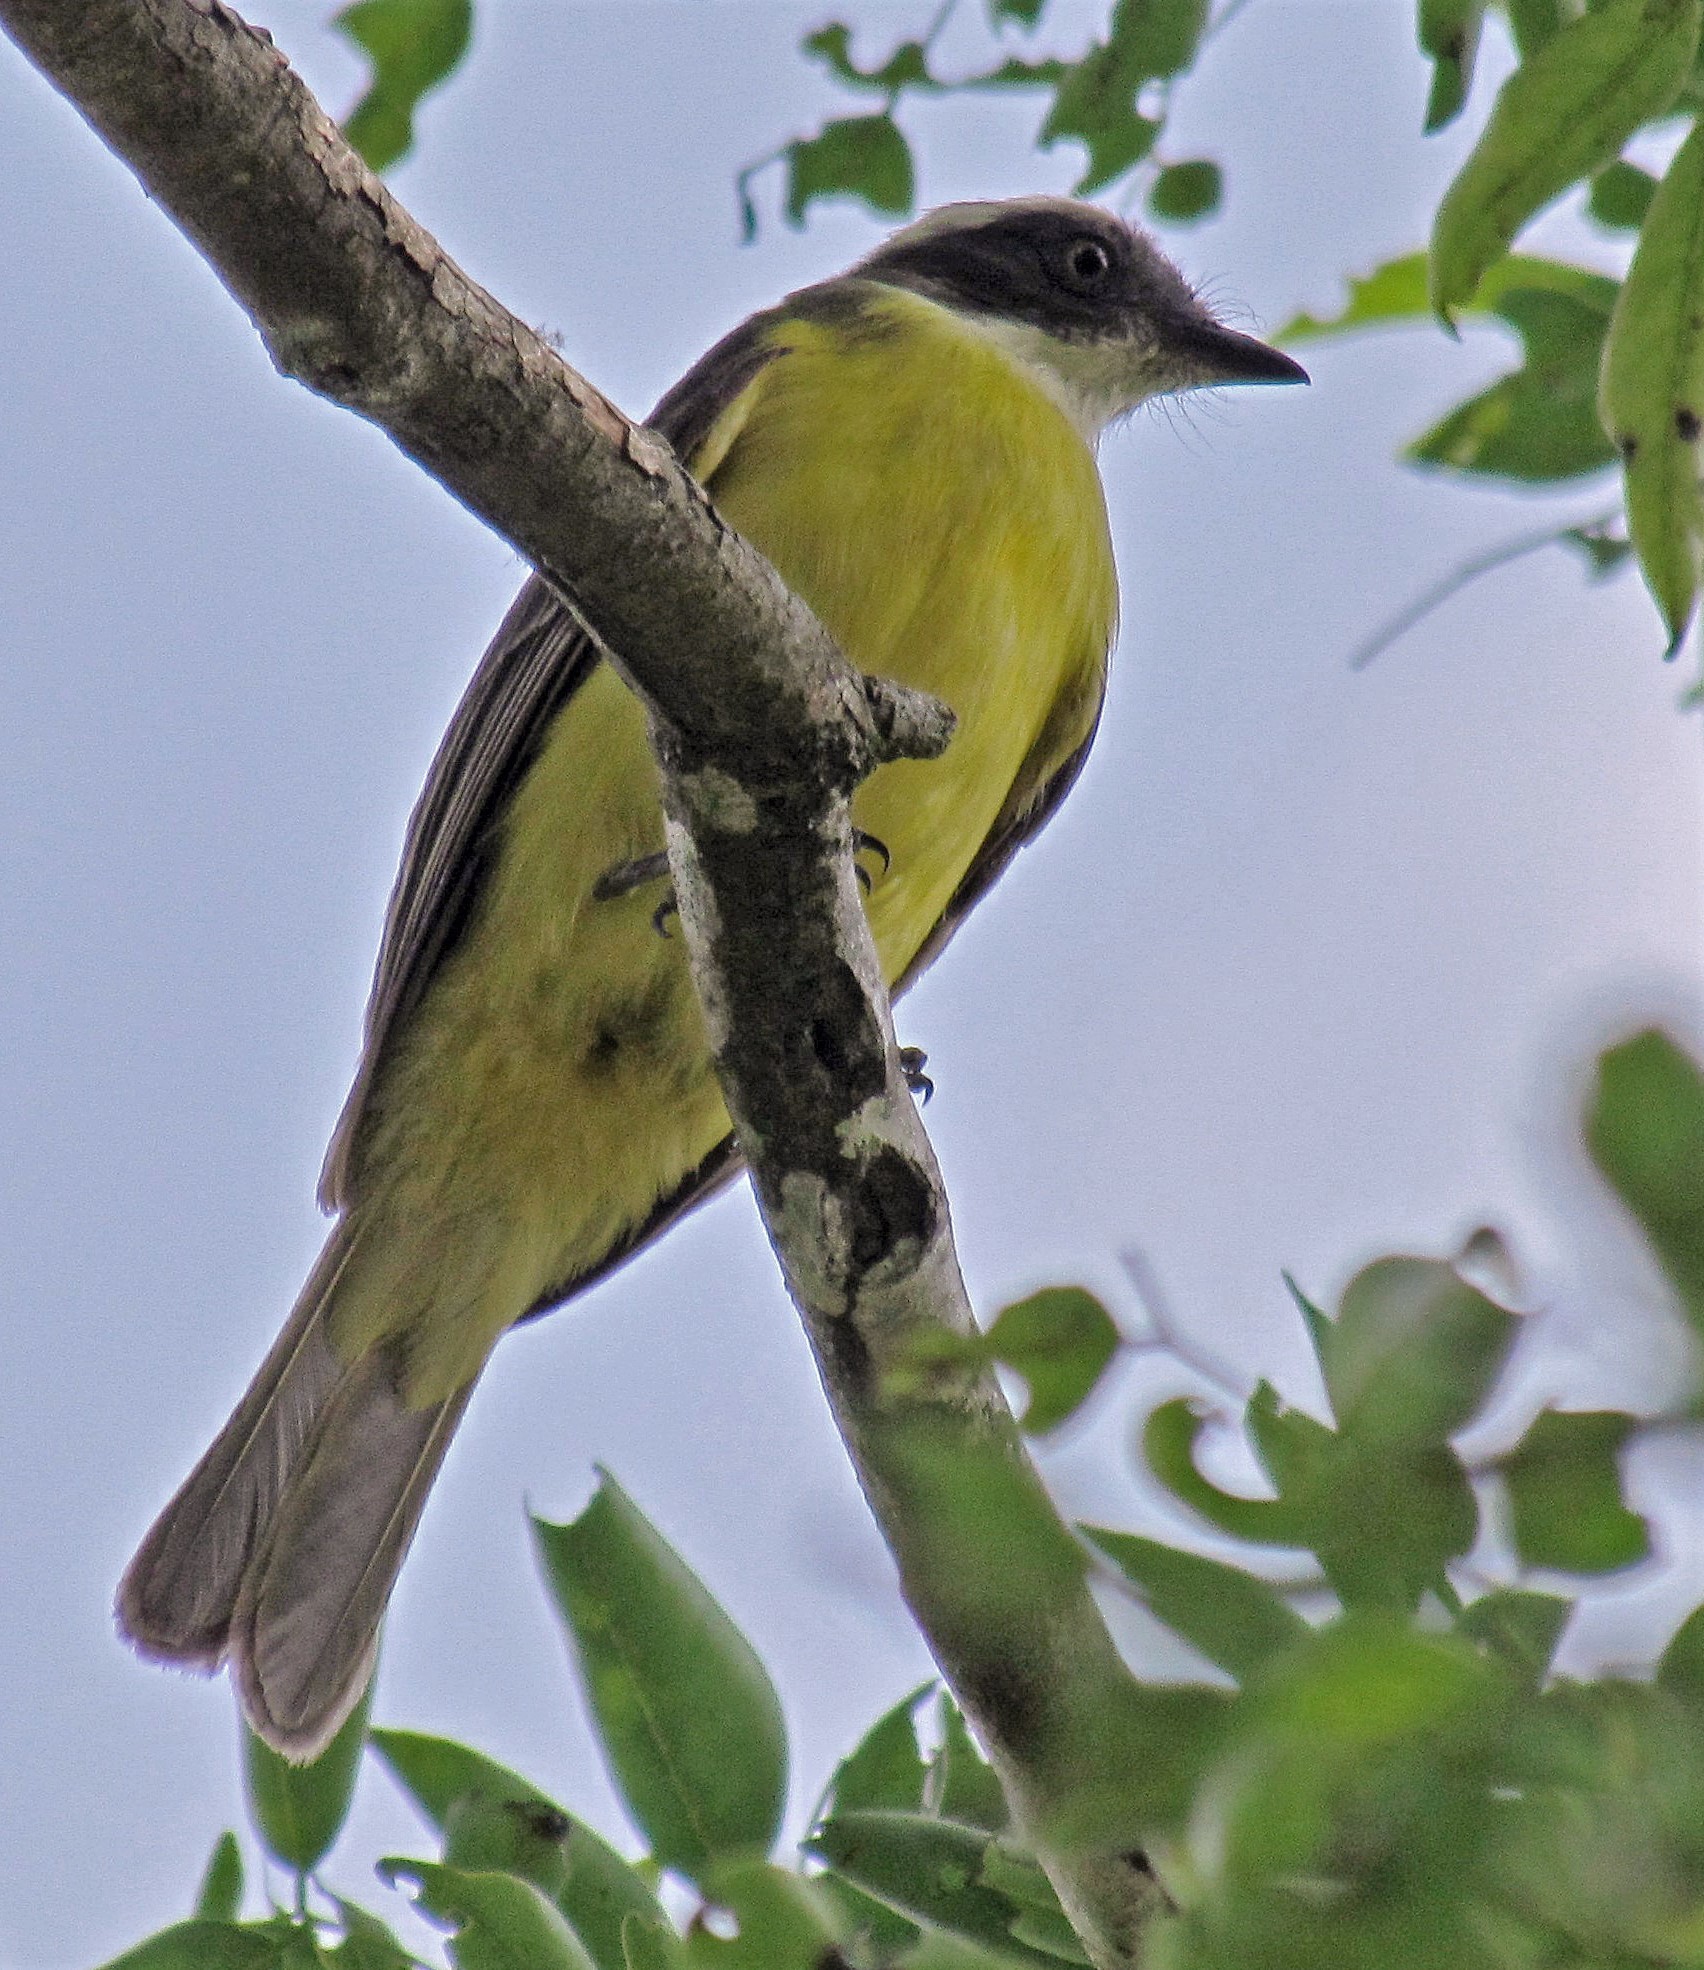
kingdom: Animalia
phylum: Chordata
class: Aves
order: Passeriformes
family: Tyrannidae
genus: Myiozetetes
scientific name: Myiozetetes similis
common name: Social flycatcher
